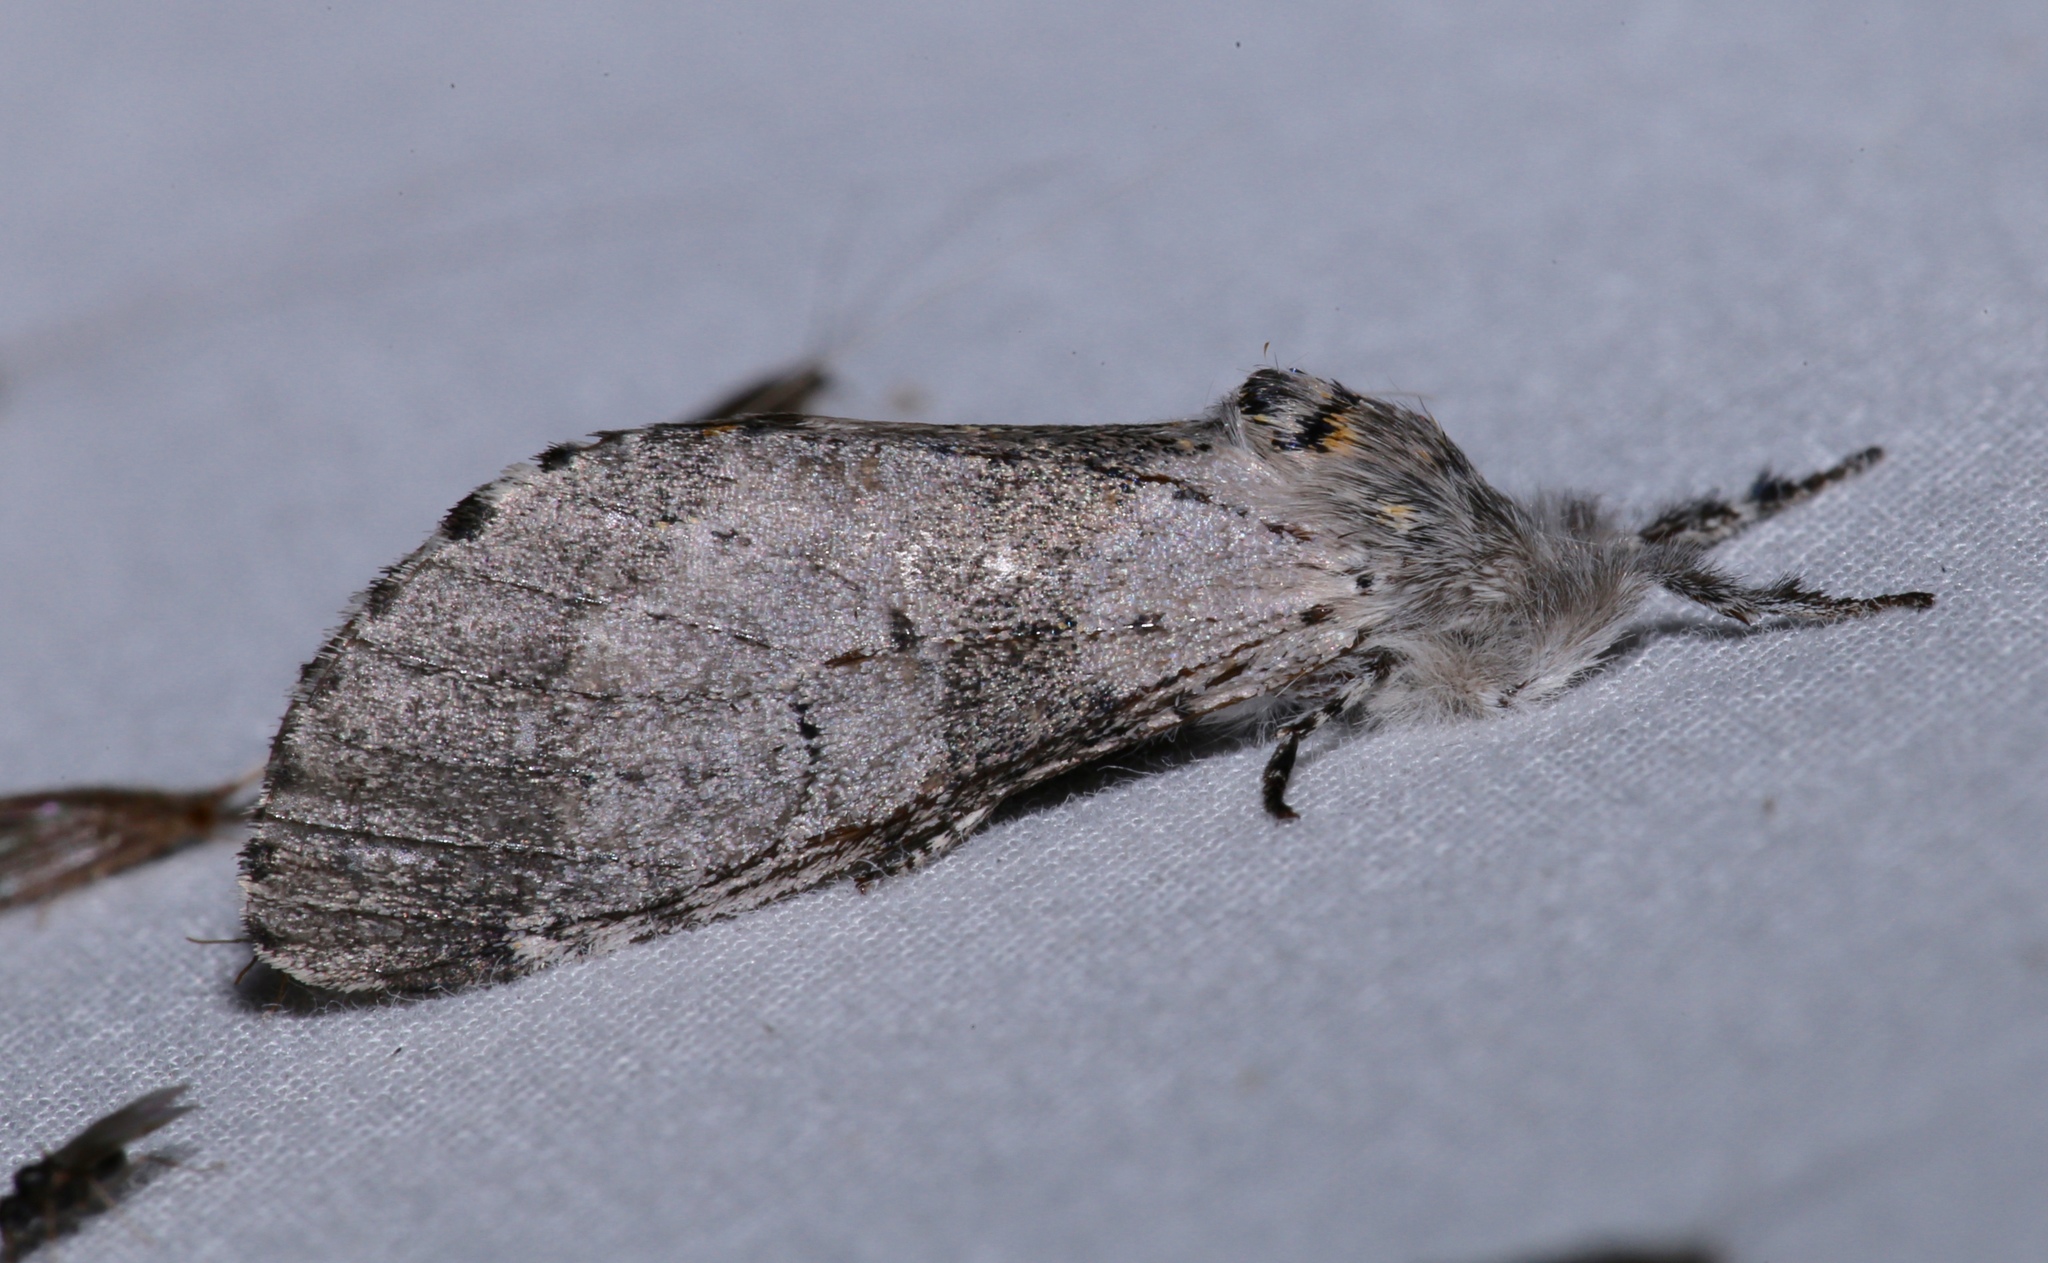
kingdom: Animalia
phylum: Arthropoda
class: Insecta
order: Lepidoptera
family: Notodontidae
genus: Furcula
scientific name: Furcula cinerea
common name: Gray furcula
